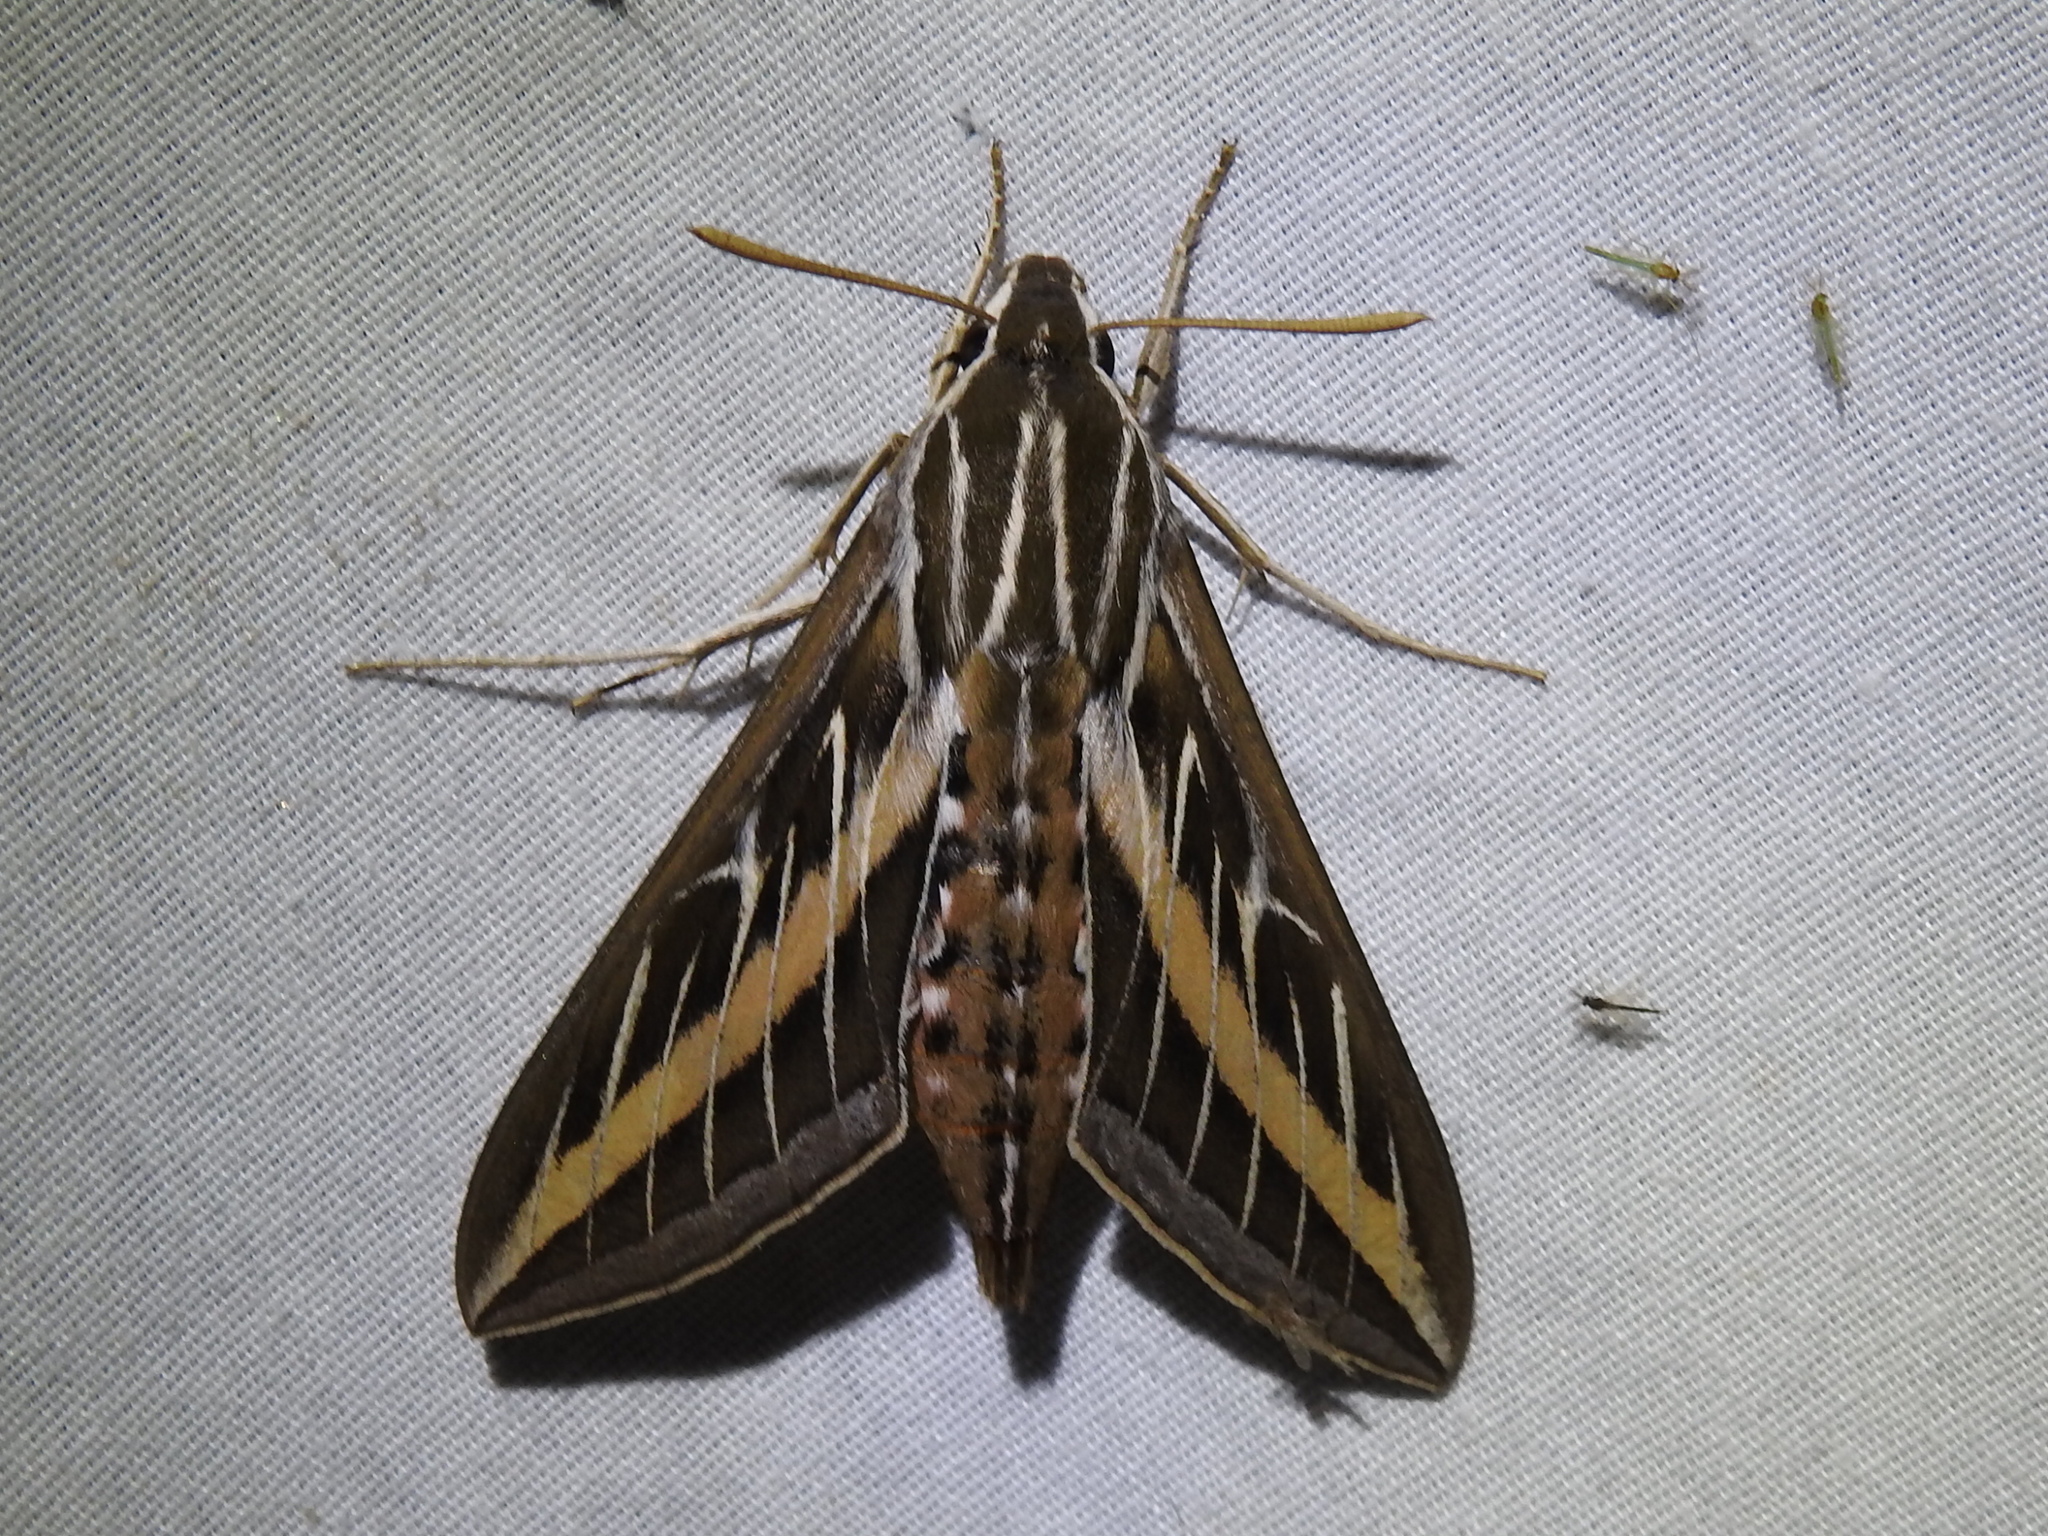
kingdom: Animalia
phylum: Arthropoda
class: Insecta
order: Lepidoptera
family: Sphingidae
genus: Hyles
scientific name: Hyles lineata
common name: White-lined sphinx
